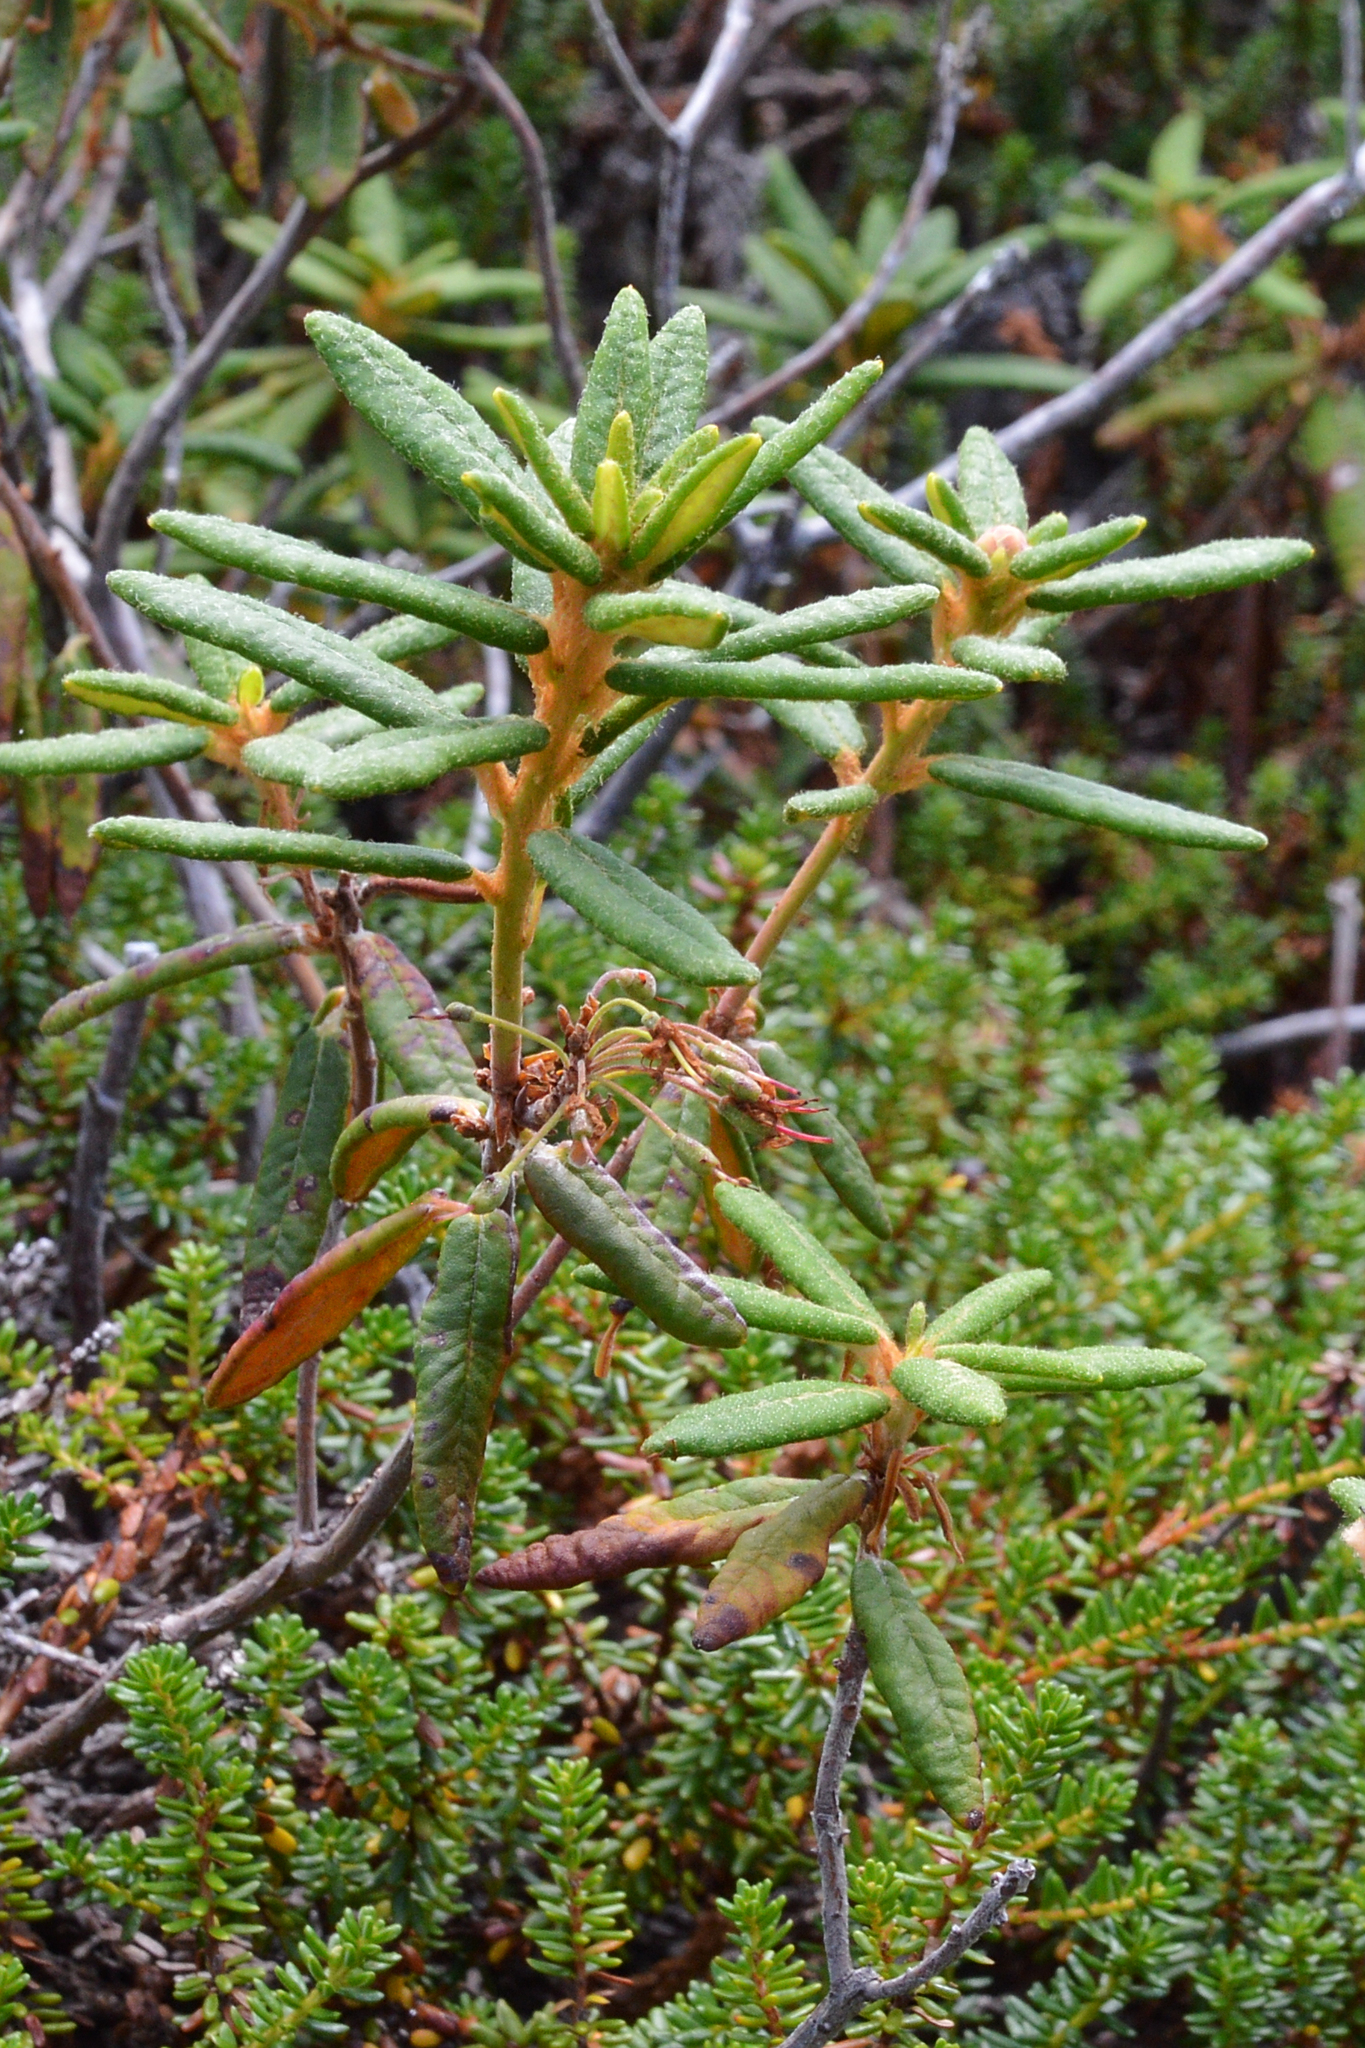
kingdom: Plantae
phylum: Tracheophyta
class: Magnoliopsida
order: Ericales
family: Ericaceae
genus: Rhododendron
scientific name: Rhododendron groenlandicum
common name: Bog labrador tea
